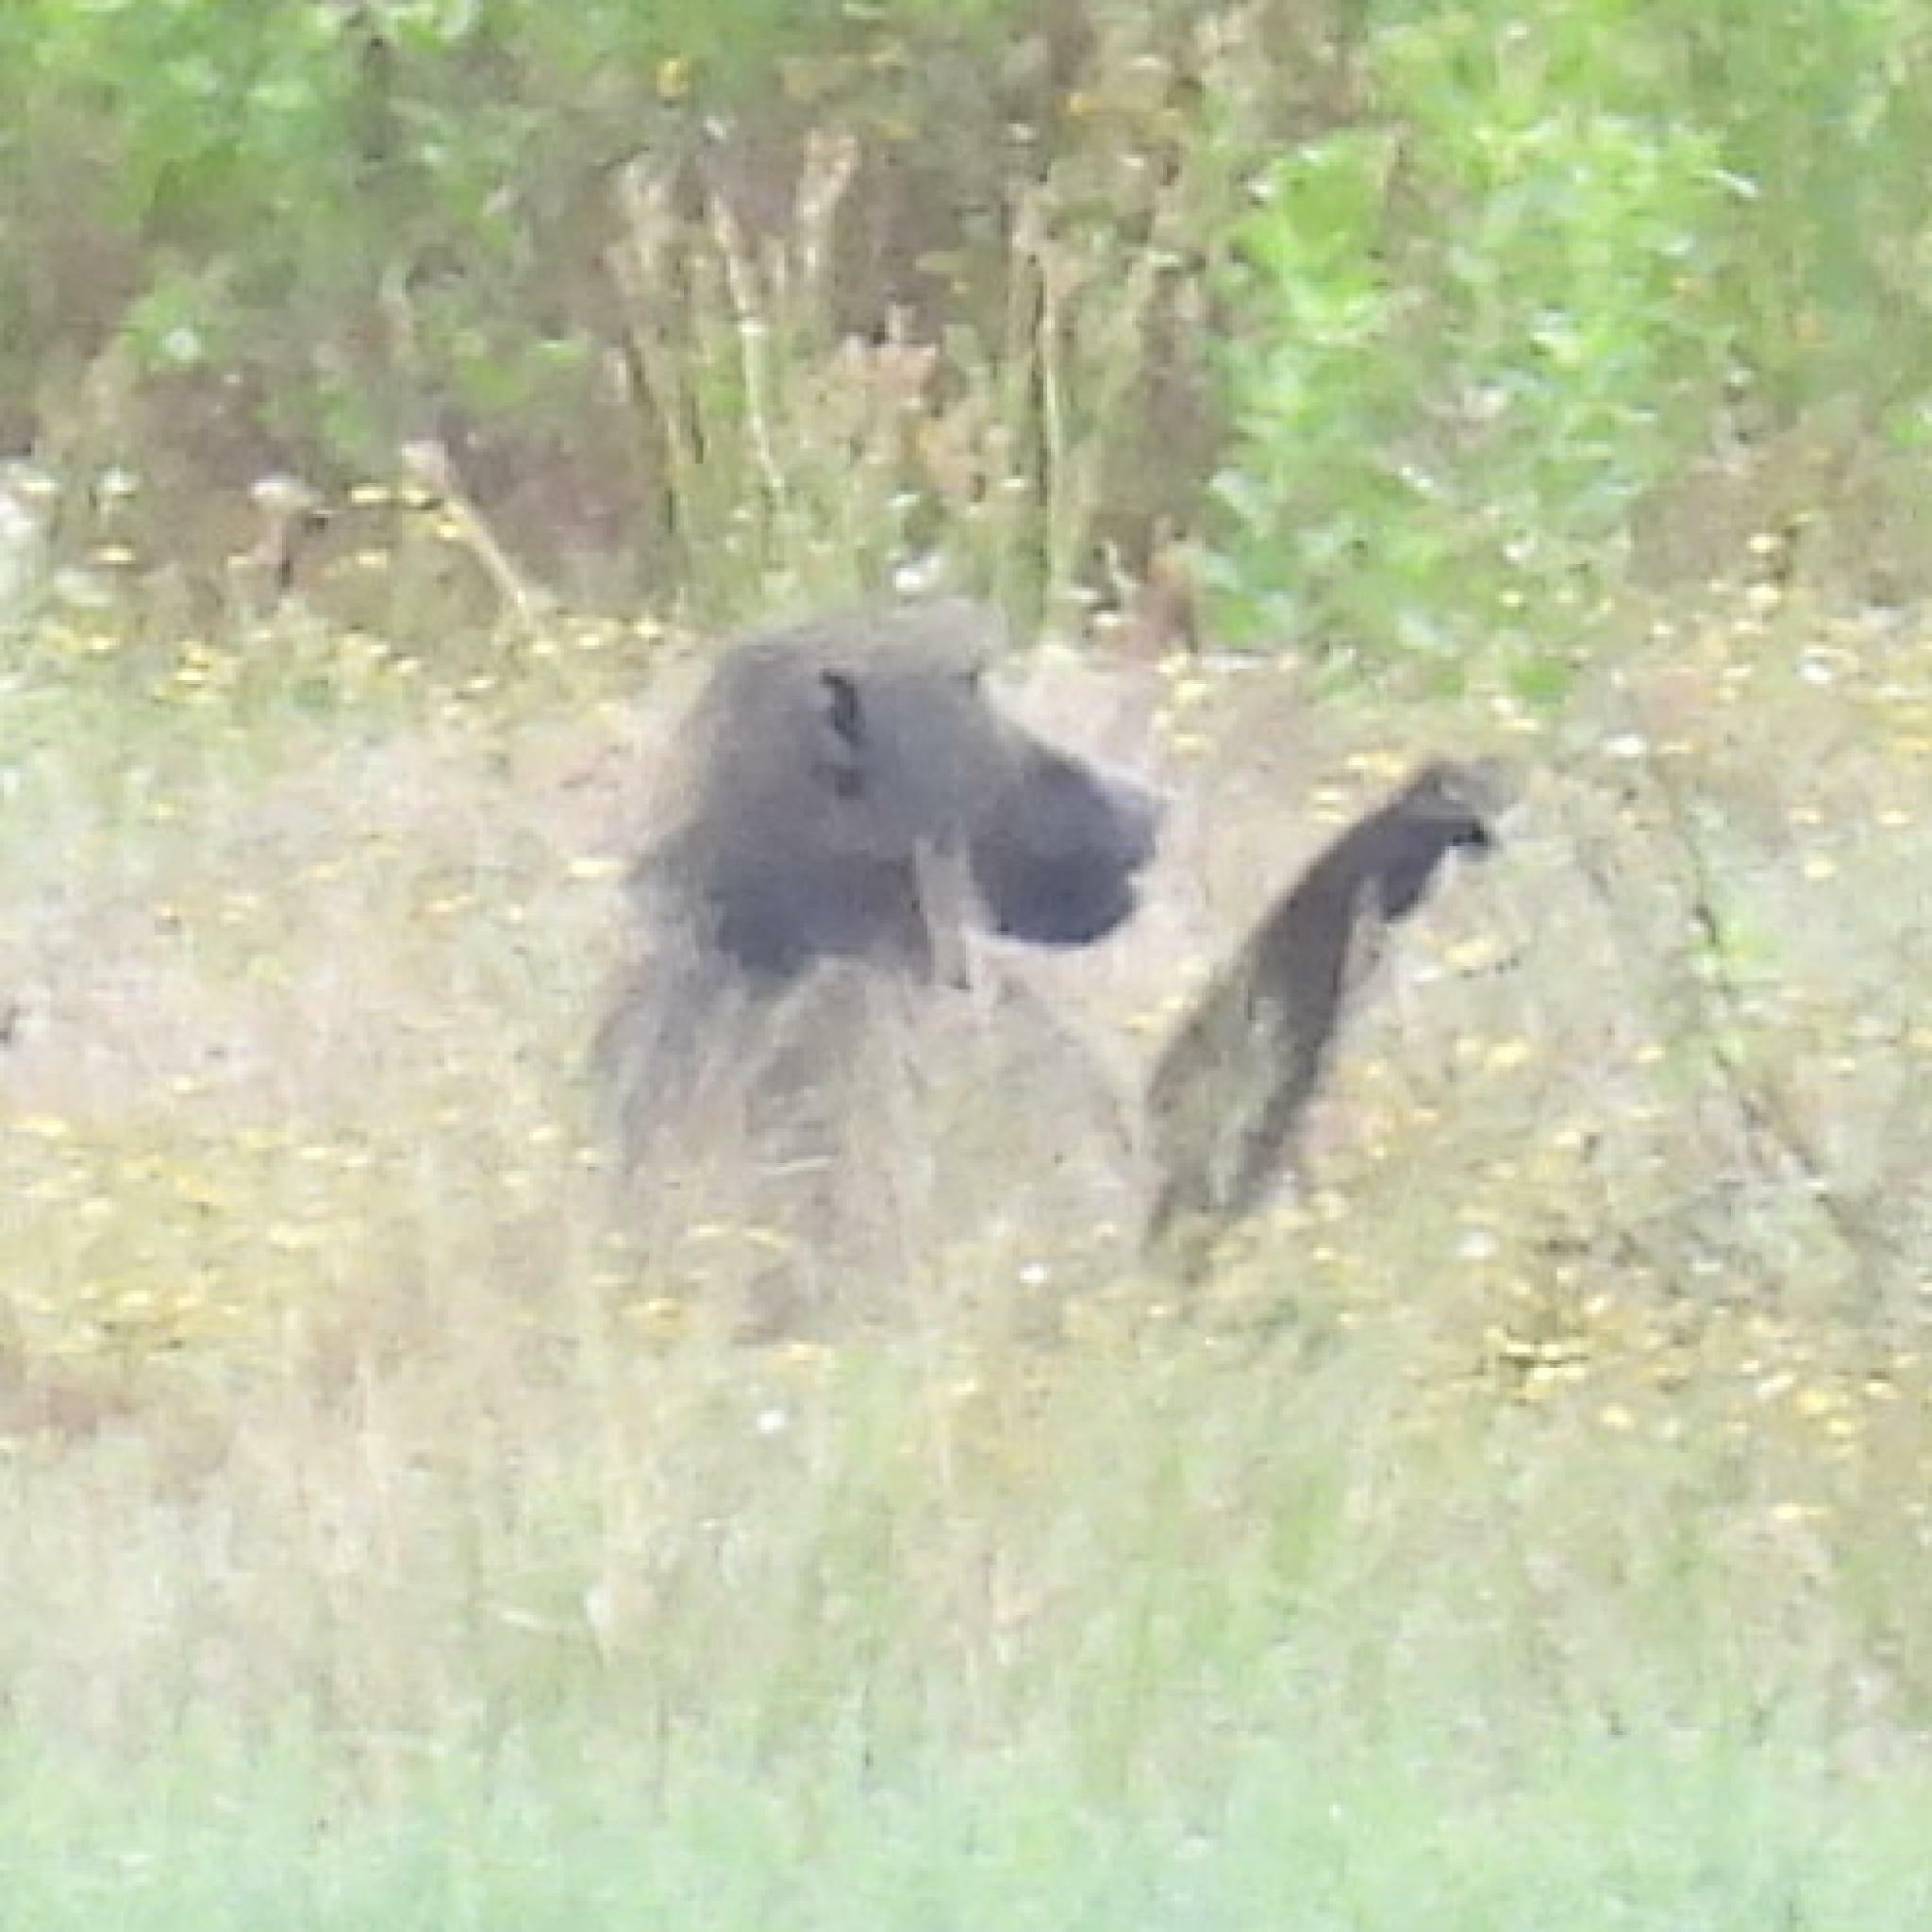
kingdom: Animalia
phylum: Chordata
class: Mammalia
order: Primates
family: Cercopithecidae
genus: Papio
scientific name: Papio ursinus
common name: Chacma baboon
